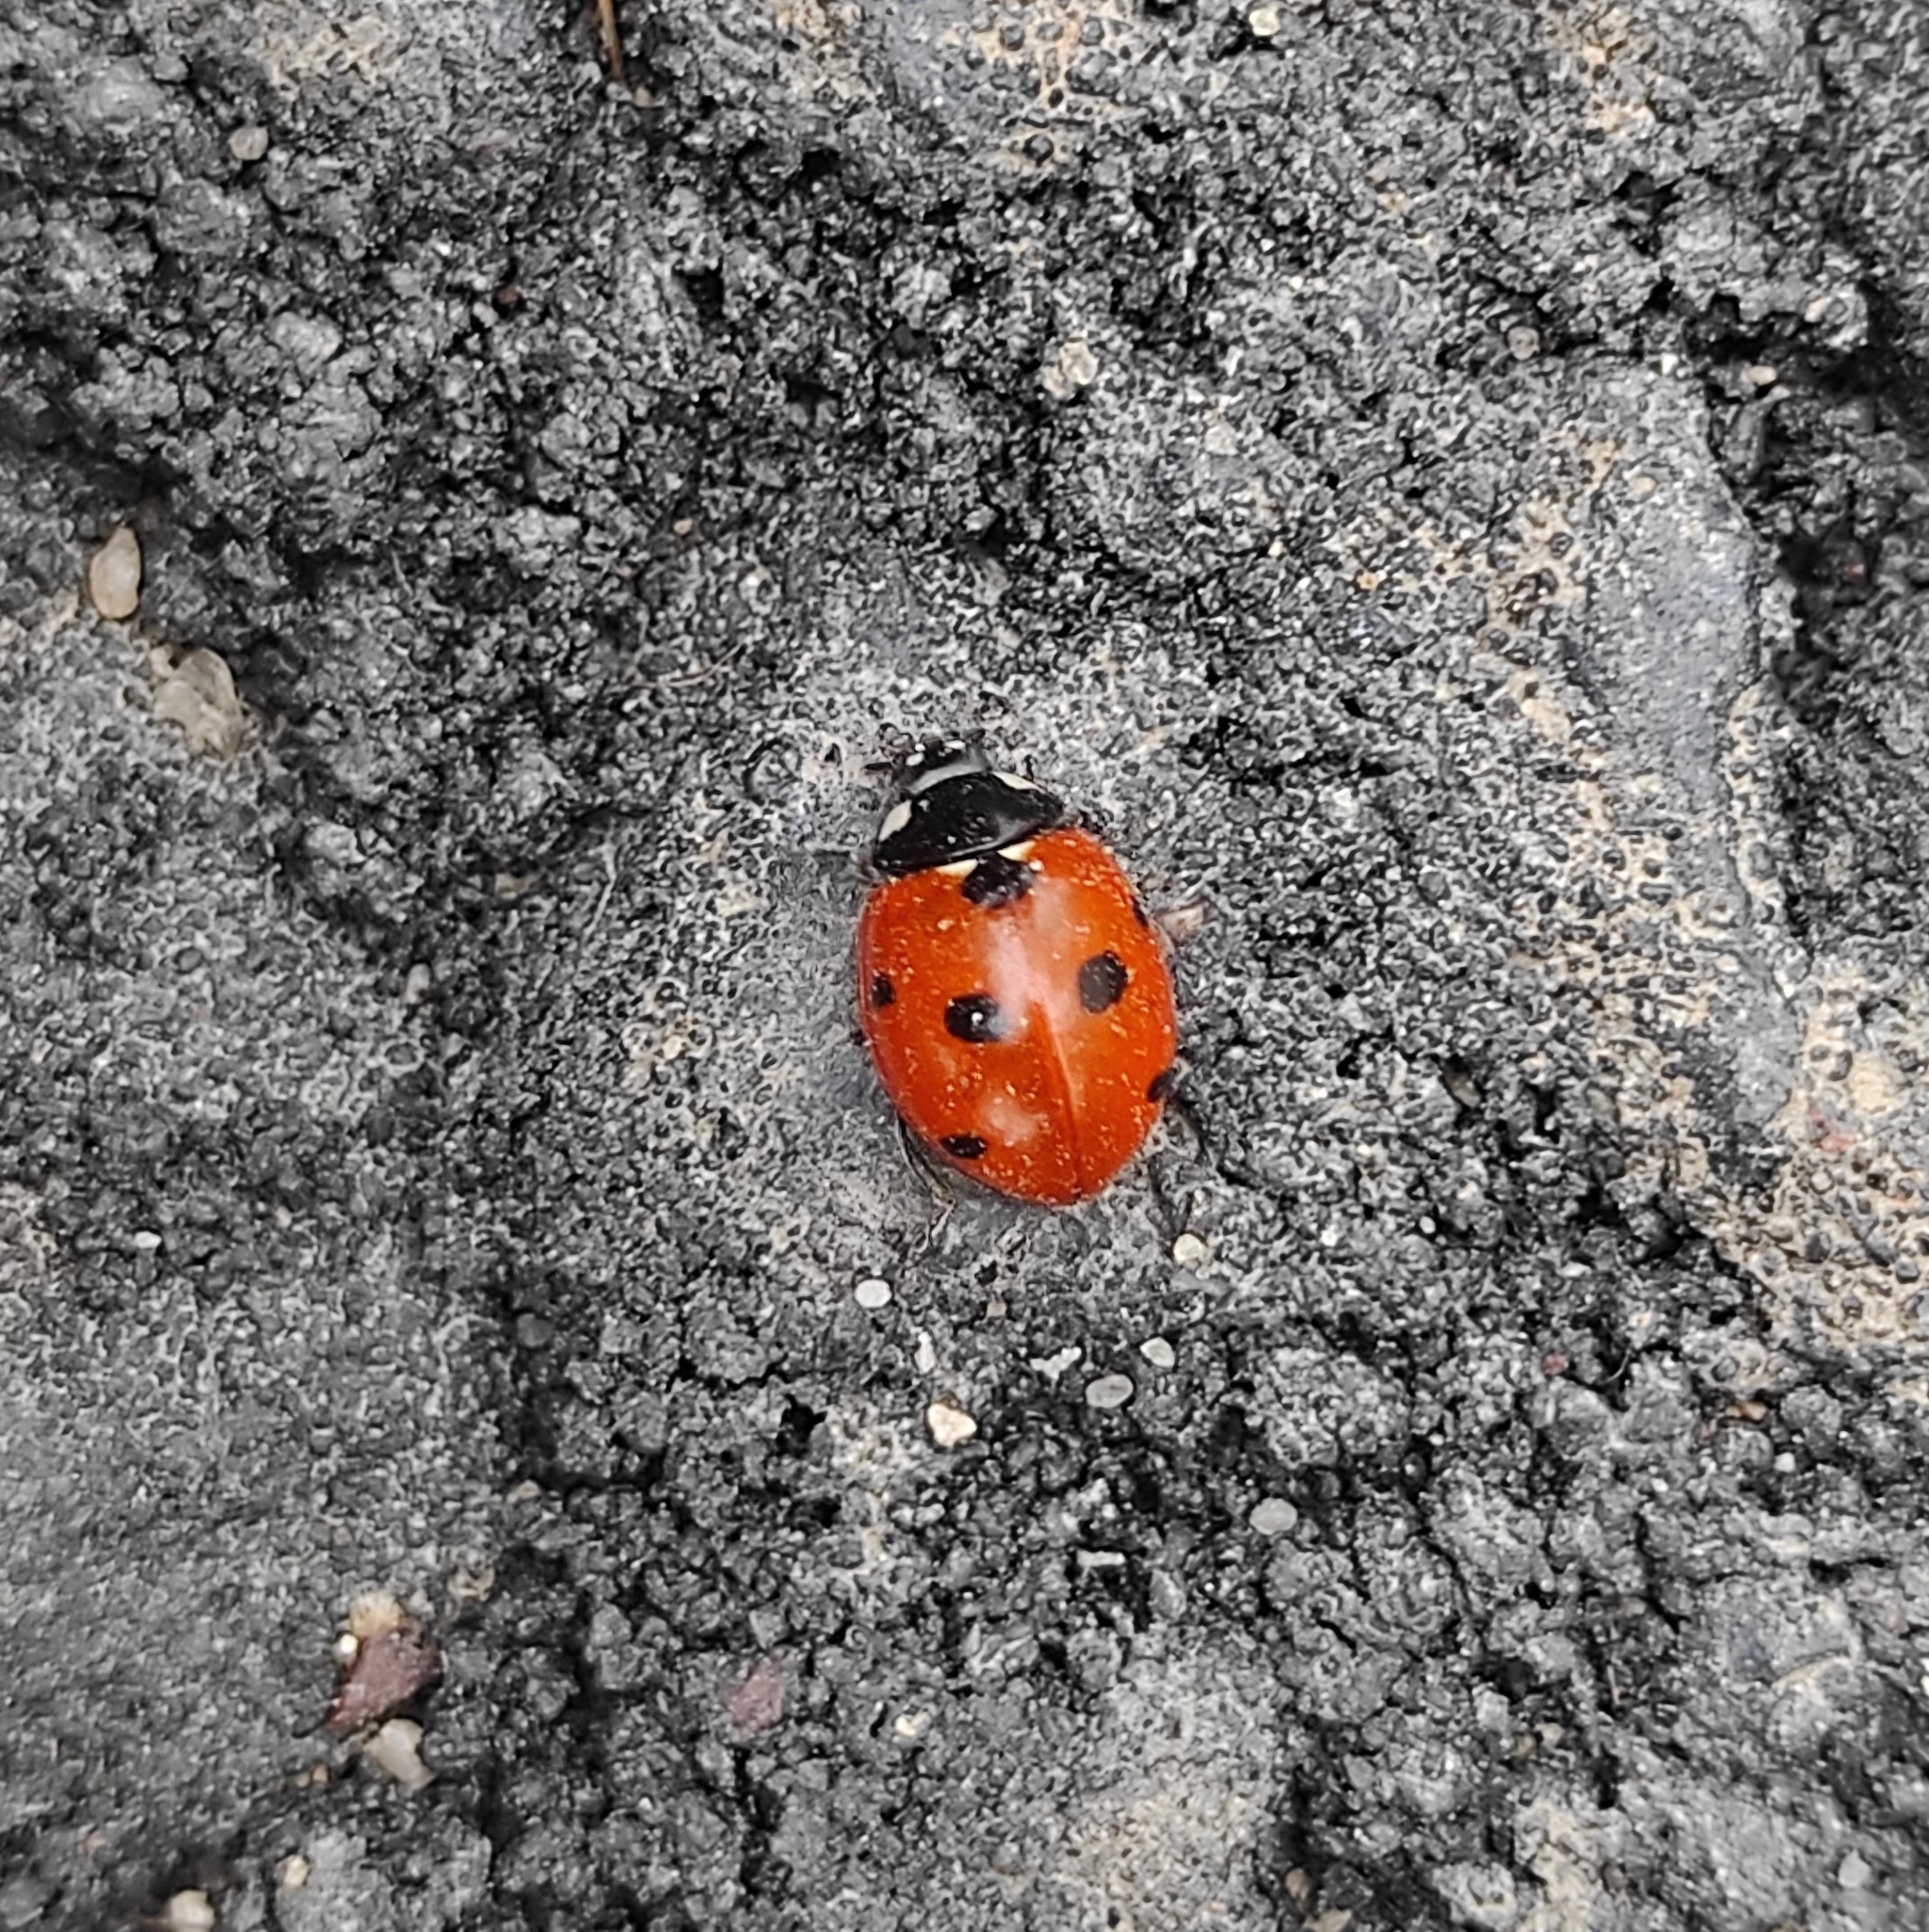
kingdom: Animalia
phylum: Arthropoda
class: Insecta
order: Coleoptera
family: Coccinellidae
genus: Coccinella
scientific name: Coccinella septempunctata
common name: Sevenspotted lady beetle
